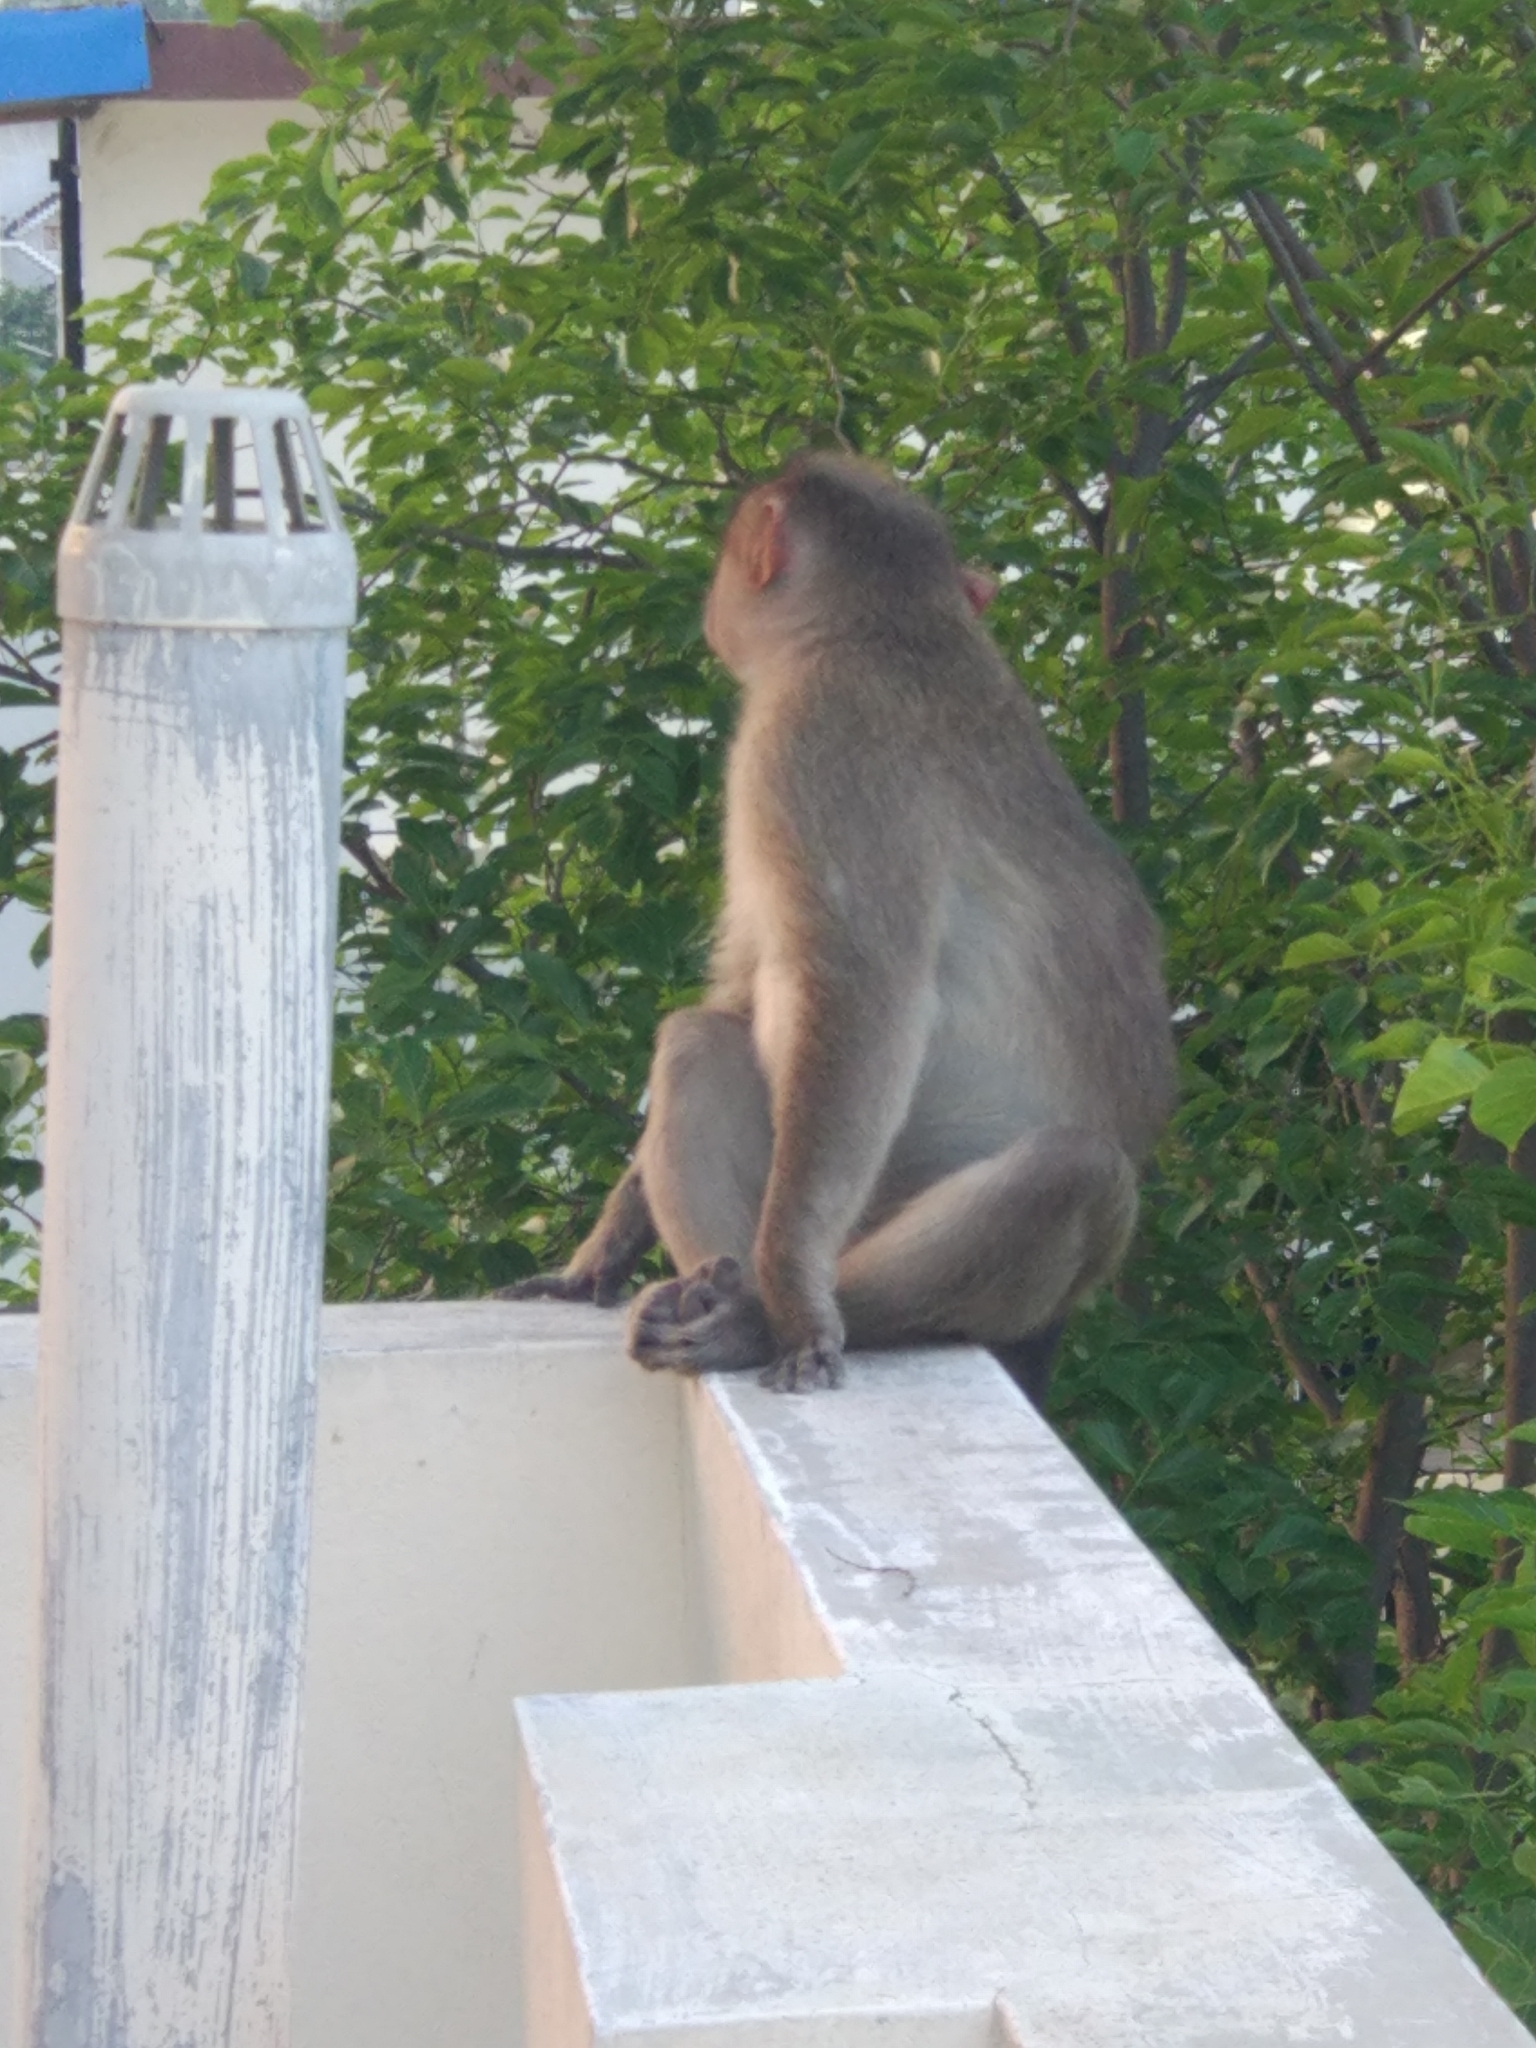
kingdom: Animalia
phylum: Chordata
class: Mammalia
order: Primates
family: Cercopithecidae
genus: Macaca
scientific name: Macaca radiata
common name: Bonnet macaque
